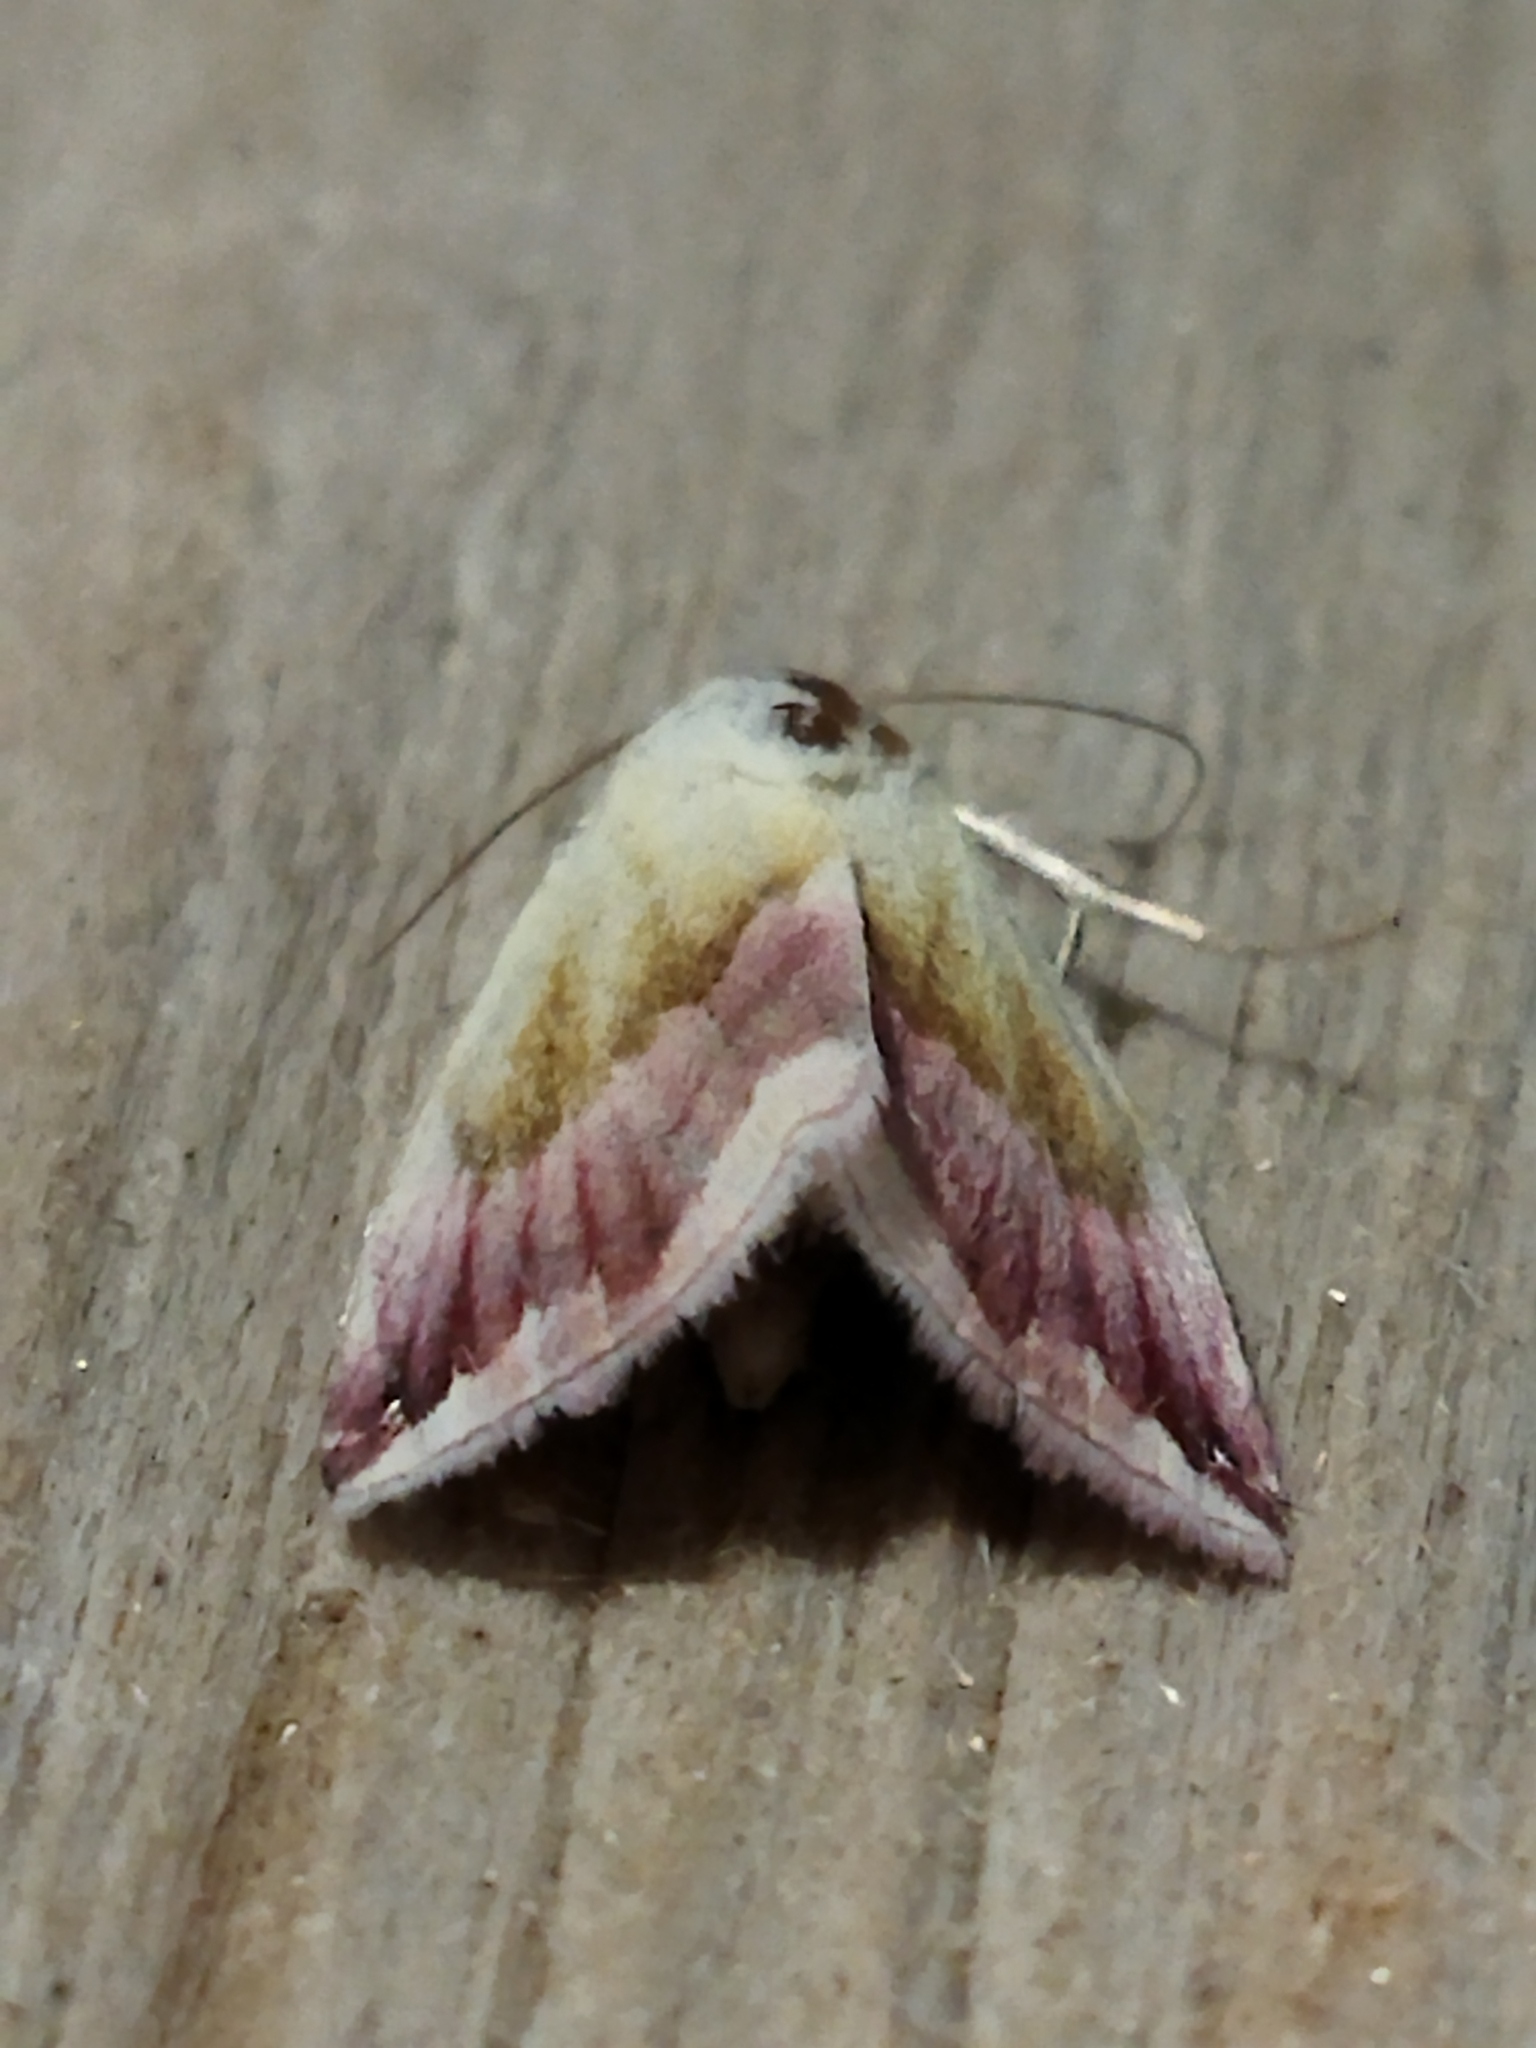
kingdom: Animalia
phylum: Arthropoda
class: Insecta
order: Lepidoptera
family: Noctuidae
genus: Eublemma
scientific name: Eublemma purpurina
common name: Beautiful marbled
